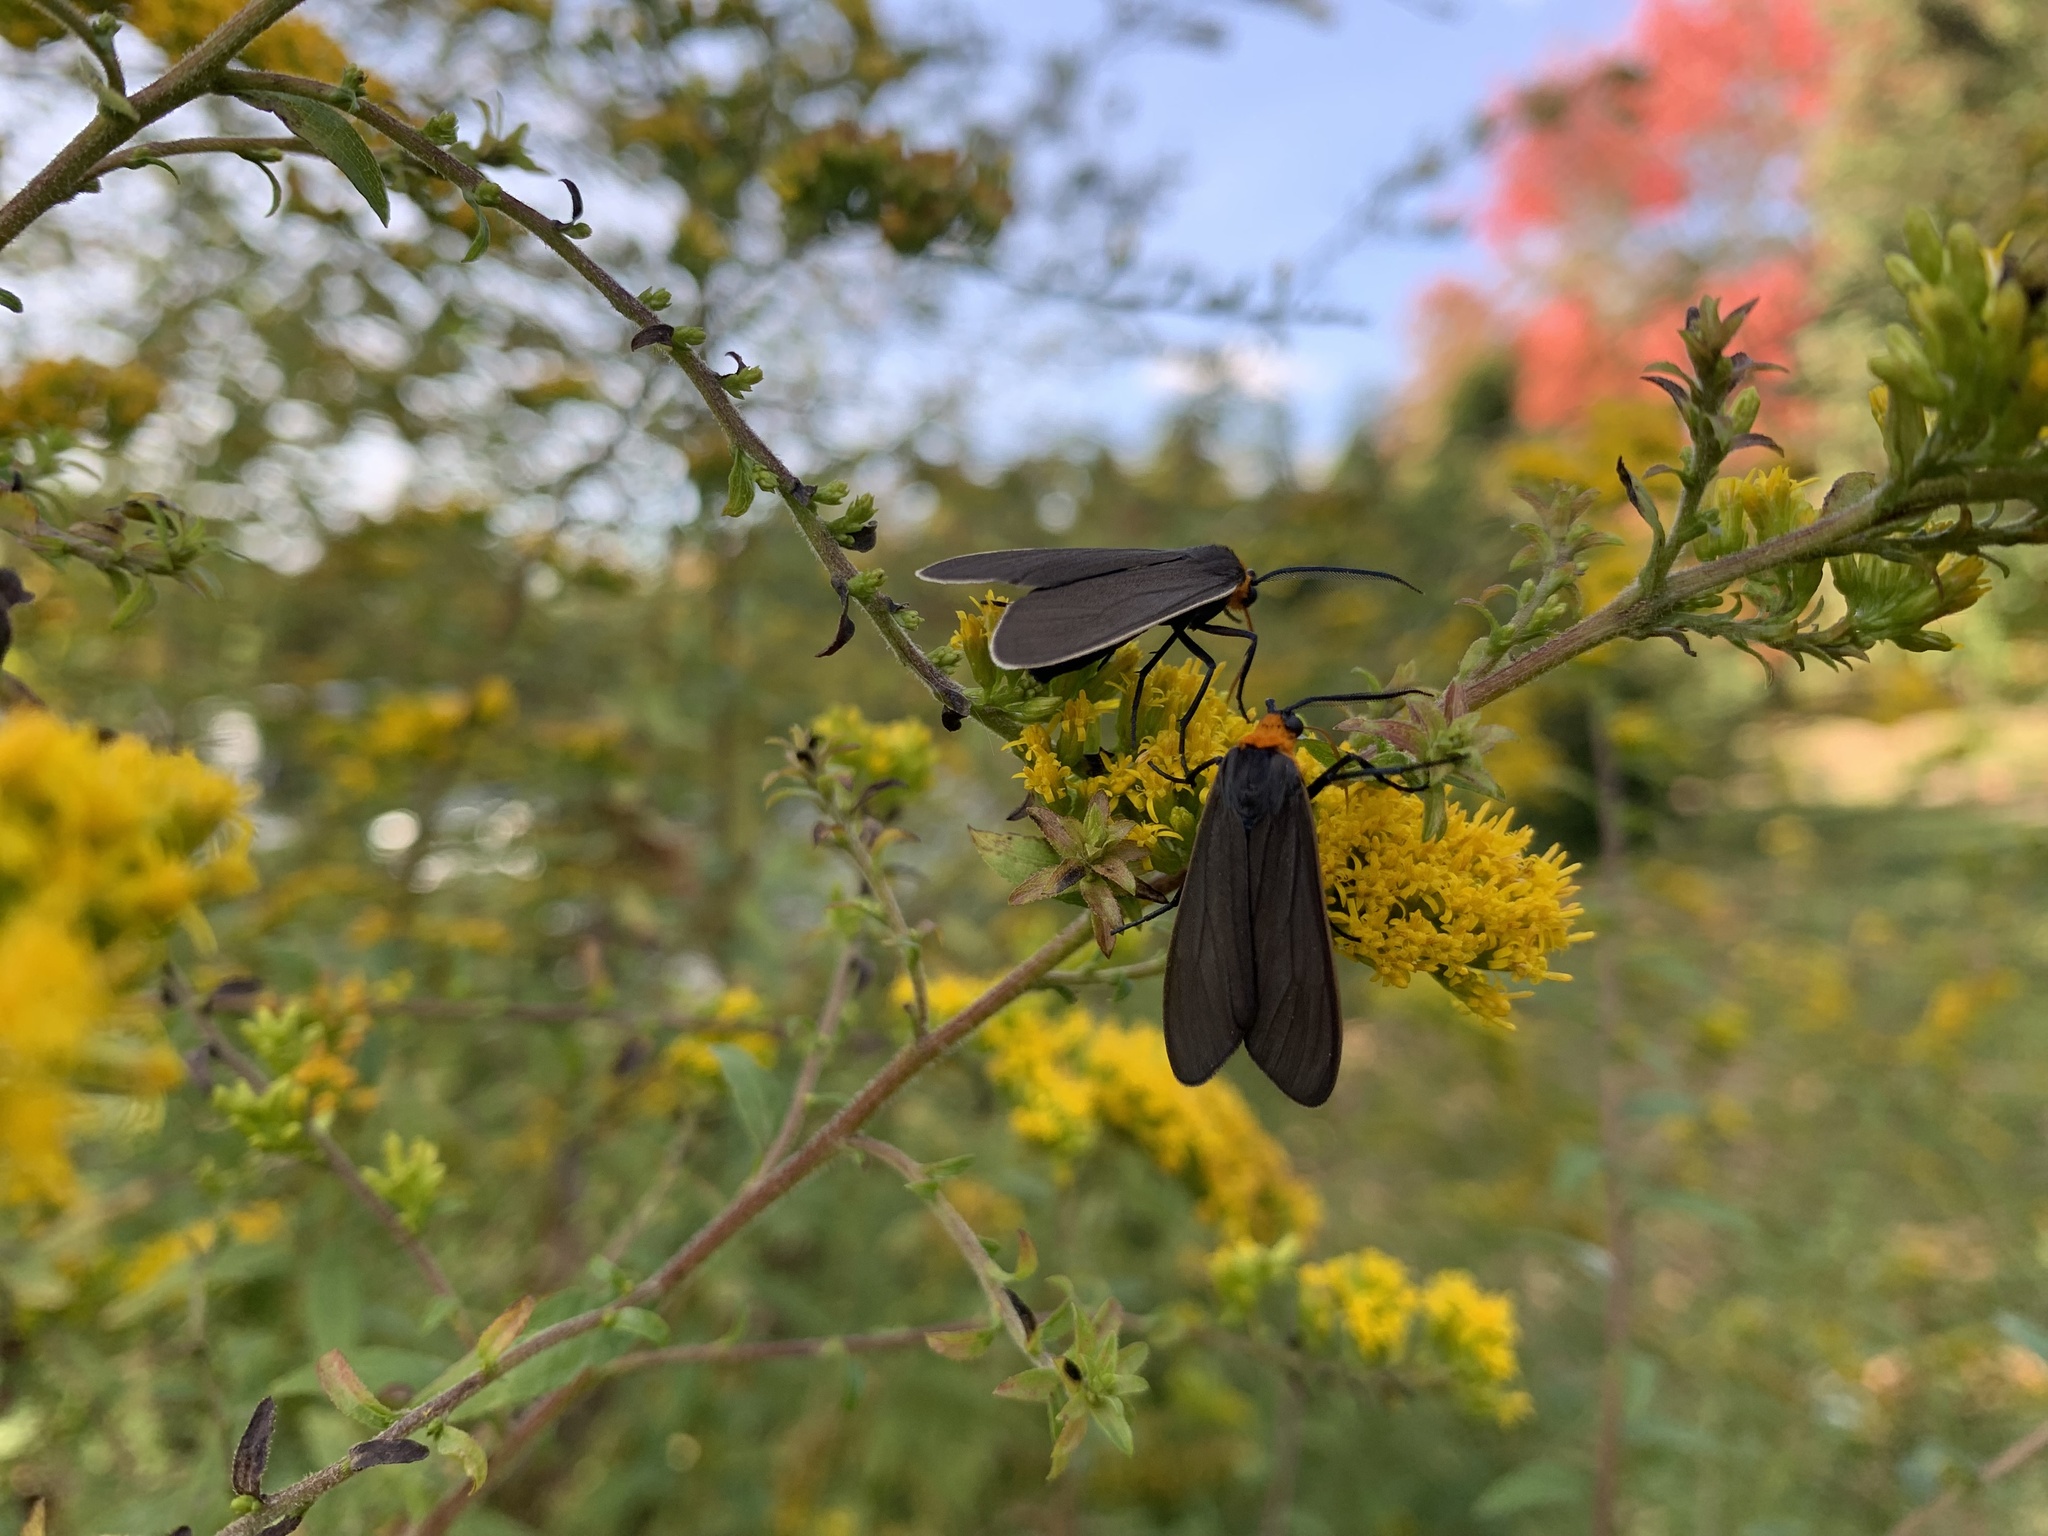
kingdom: Animalia
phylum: Arthropoda
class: Insecta
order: Lepidoptera
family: Erebidae
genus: Cisseps
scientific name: Cisseps fulvicollis
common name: Yellow-collared scape moth
